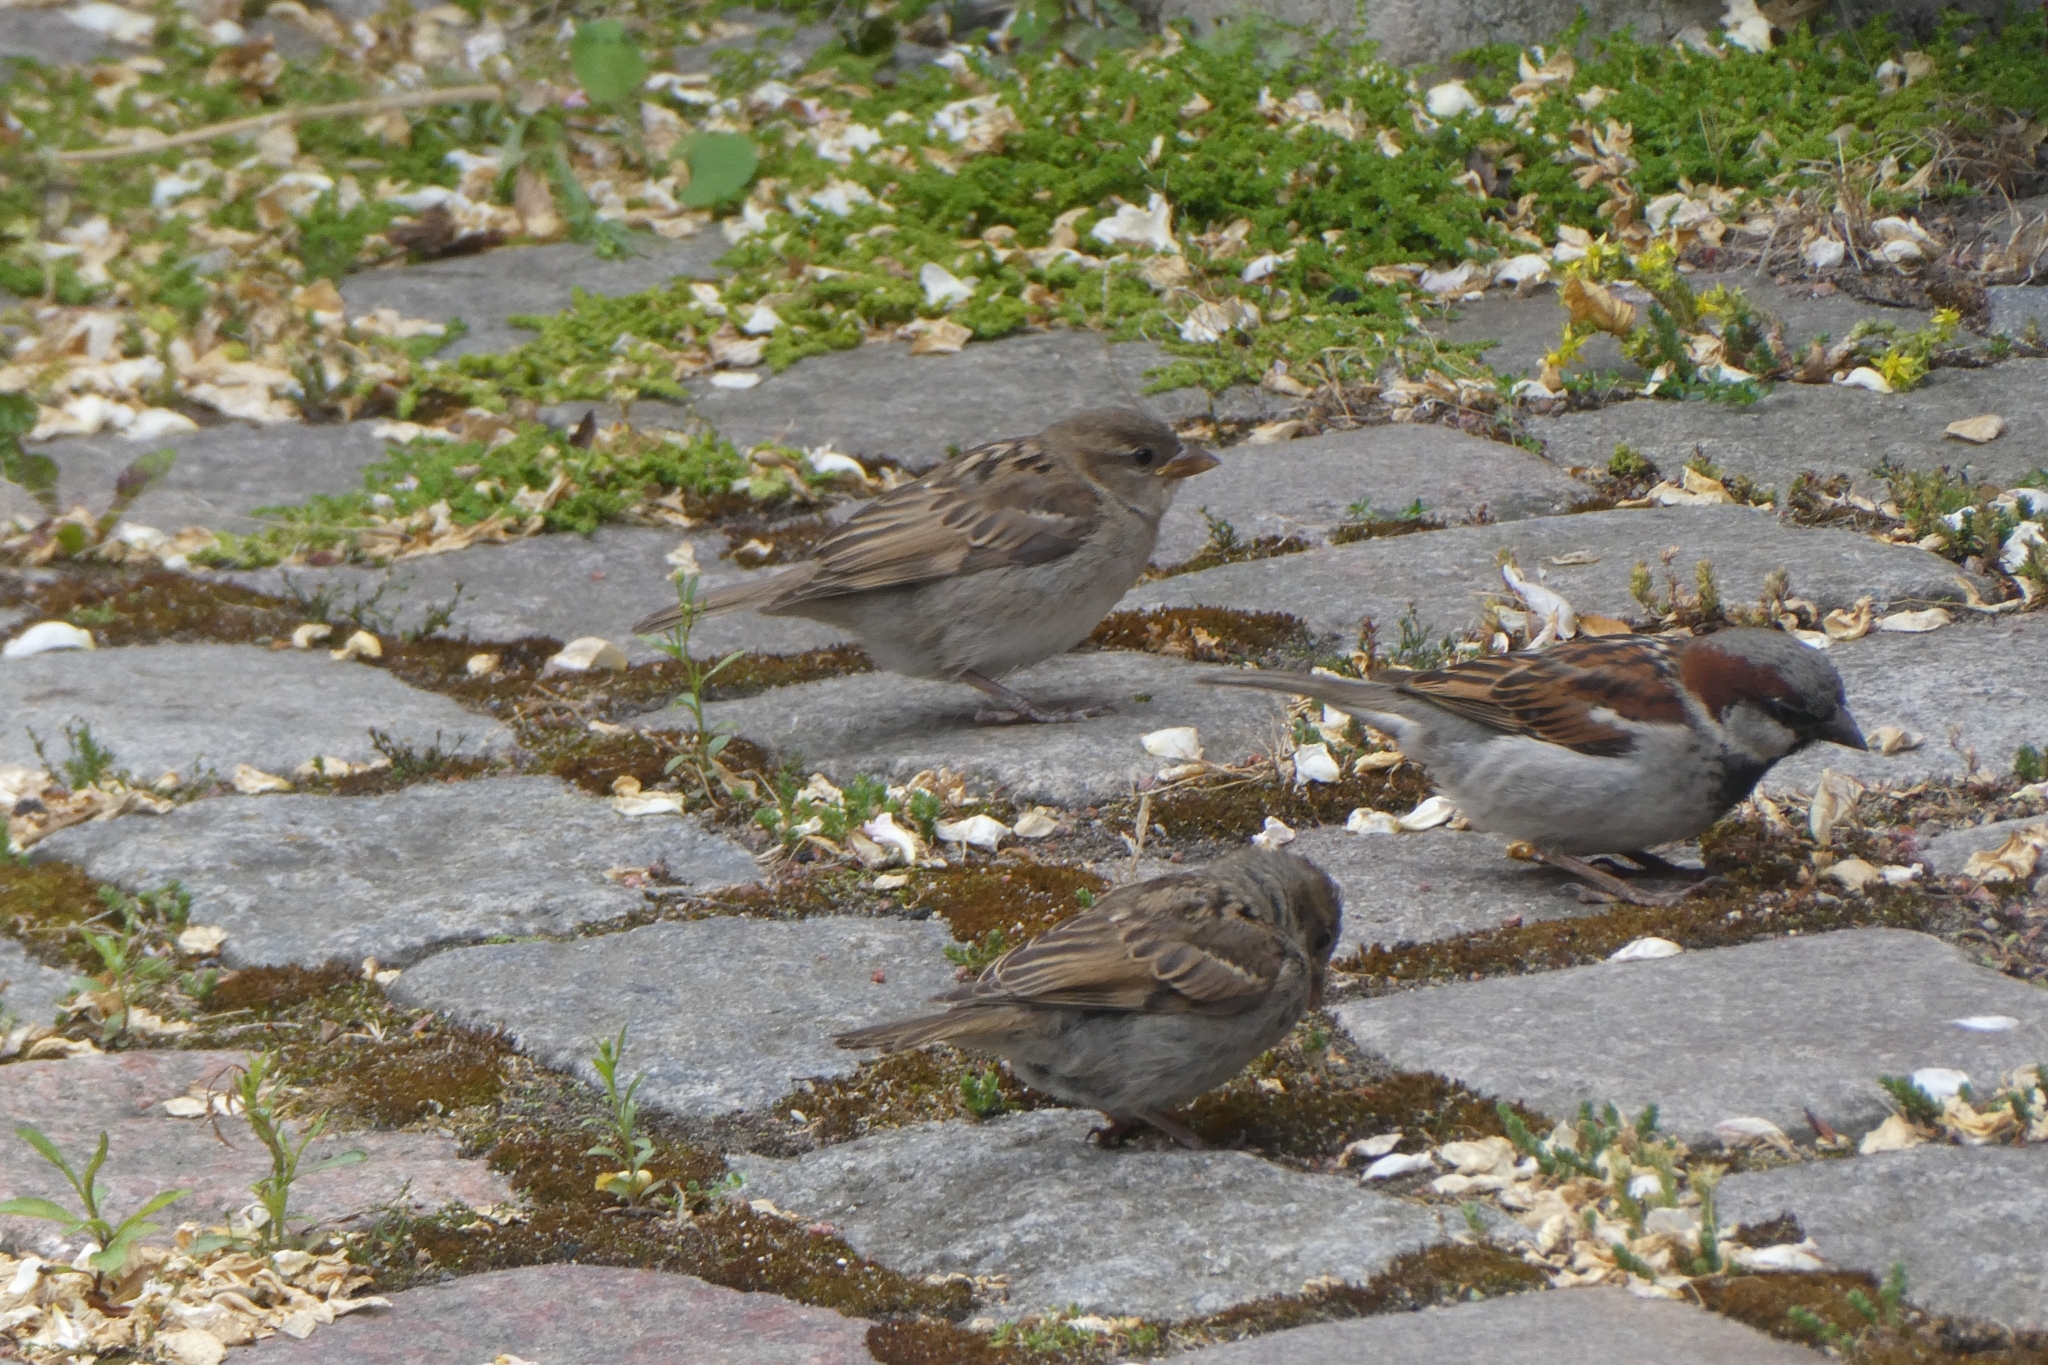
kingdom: Animalia
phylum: Chordata
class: Aves
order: Passeriformes
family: Passeridae
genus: Passer
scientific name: Passer domesticus
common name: House sparrow
